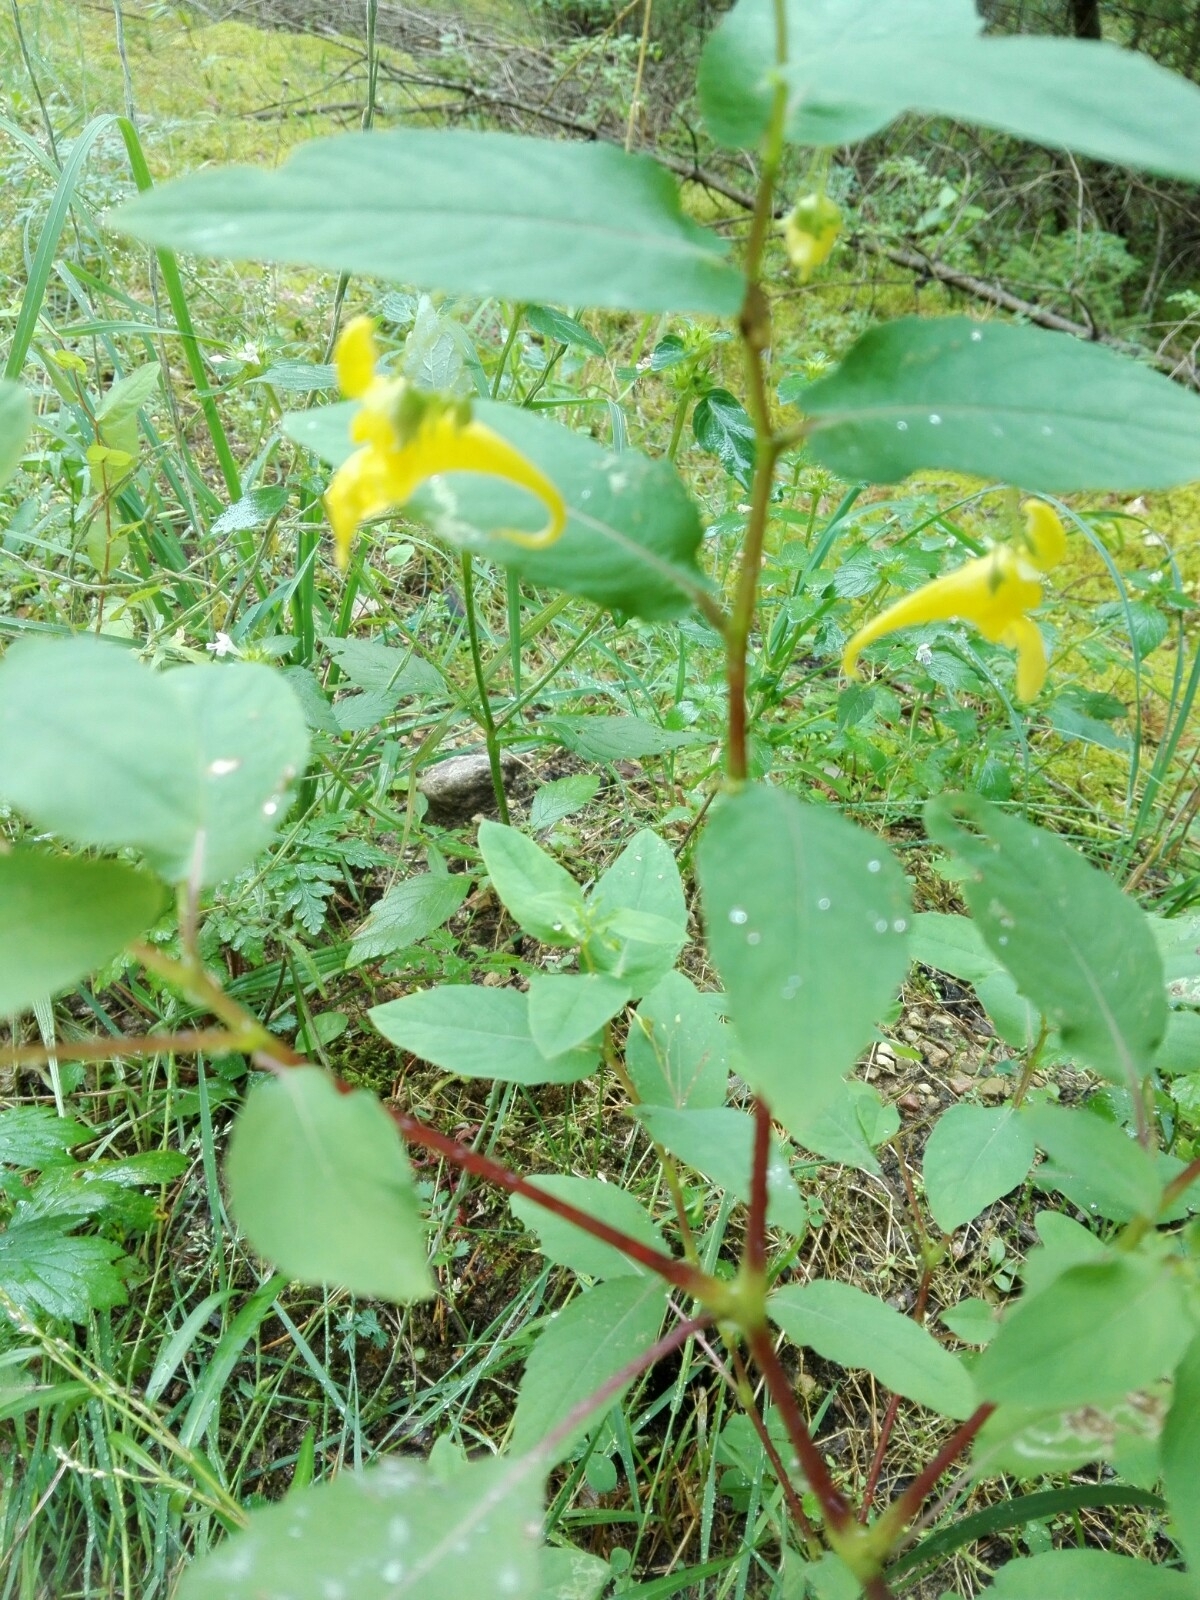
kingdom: Plantae
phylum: Tracheophyta
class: Magnoliopsida
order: Ericales
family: Balsaminaceae
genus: Impatiens
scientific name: Impatiens noli-tangere
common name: Touch-me-not balsam
